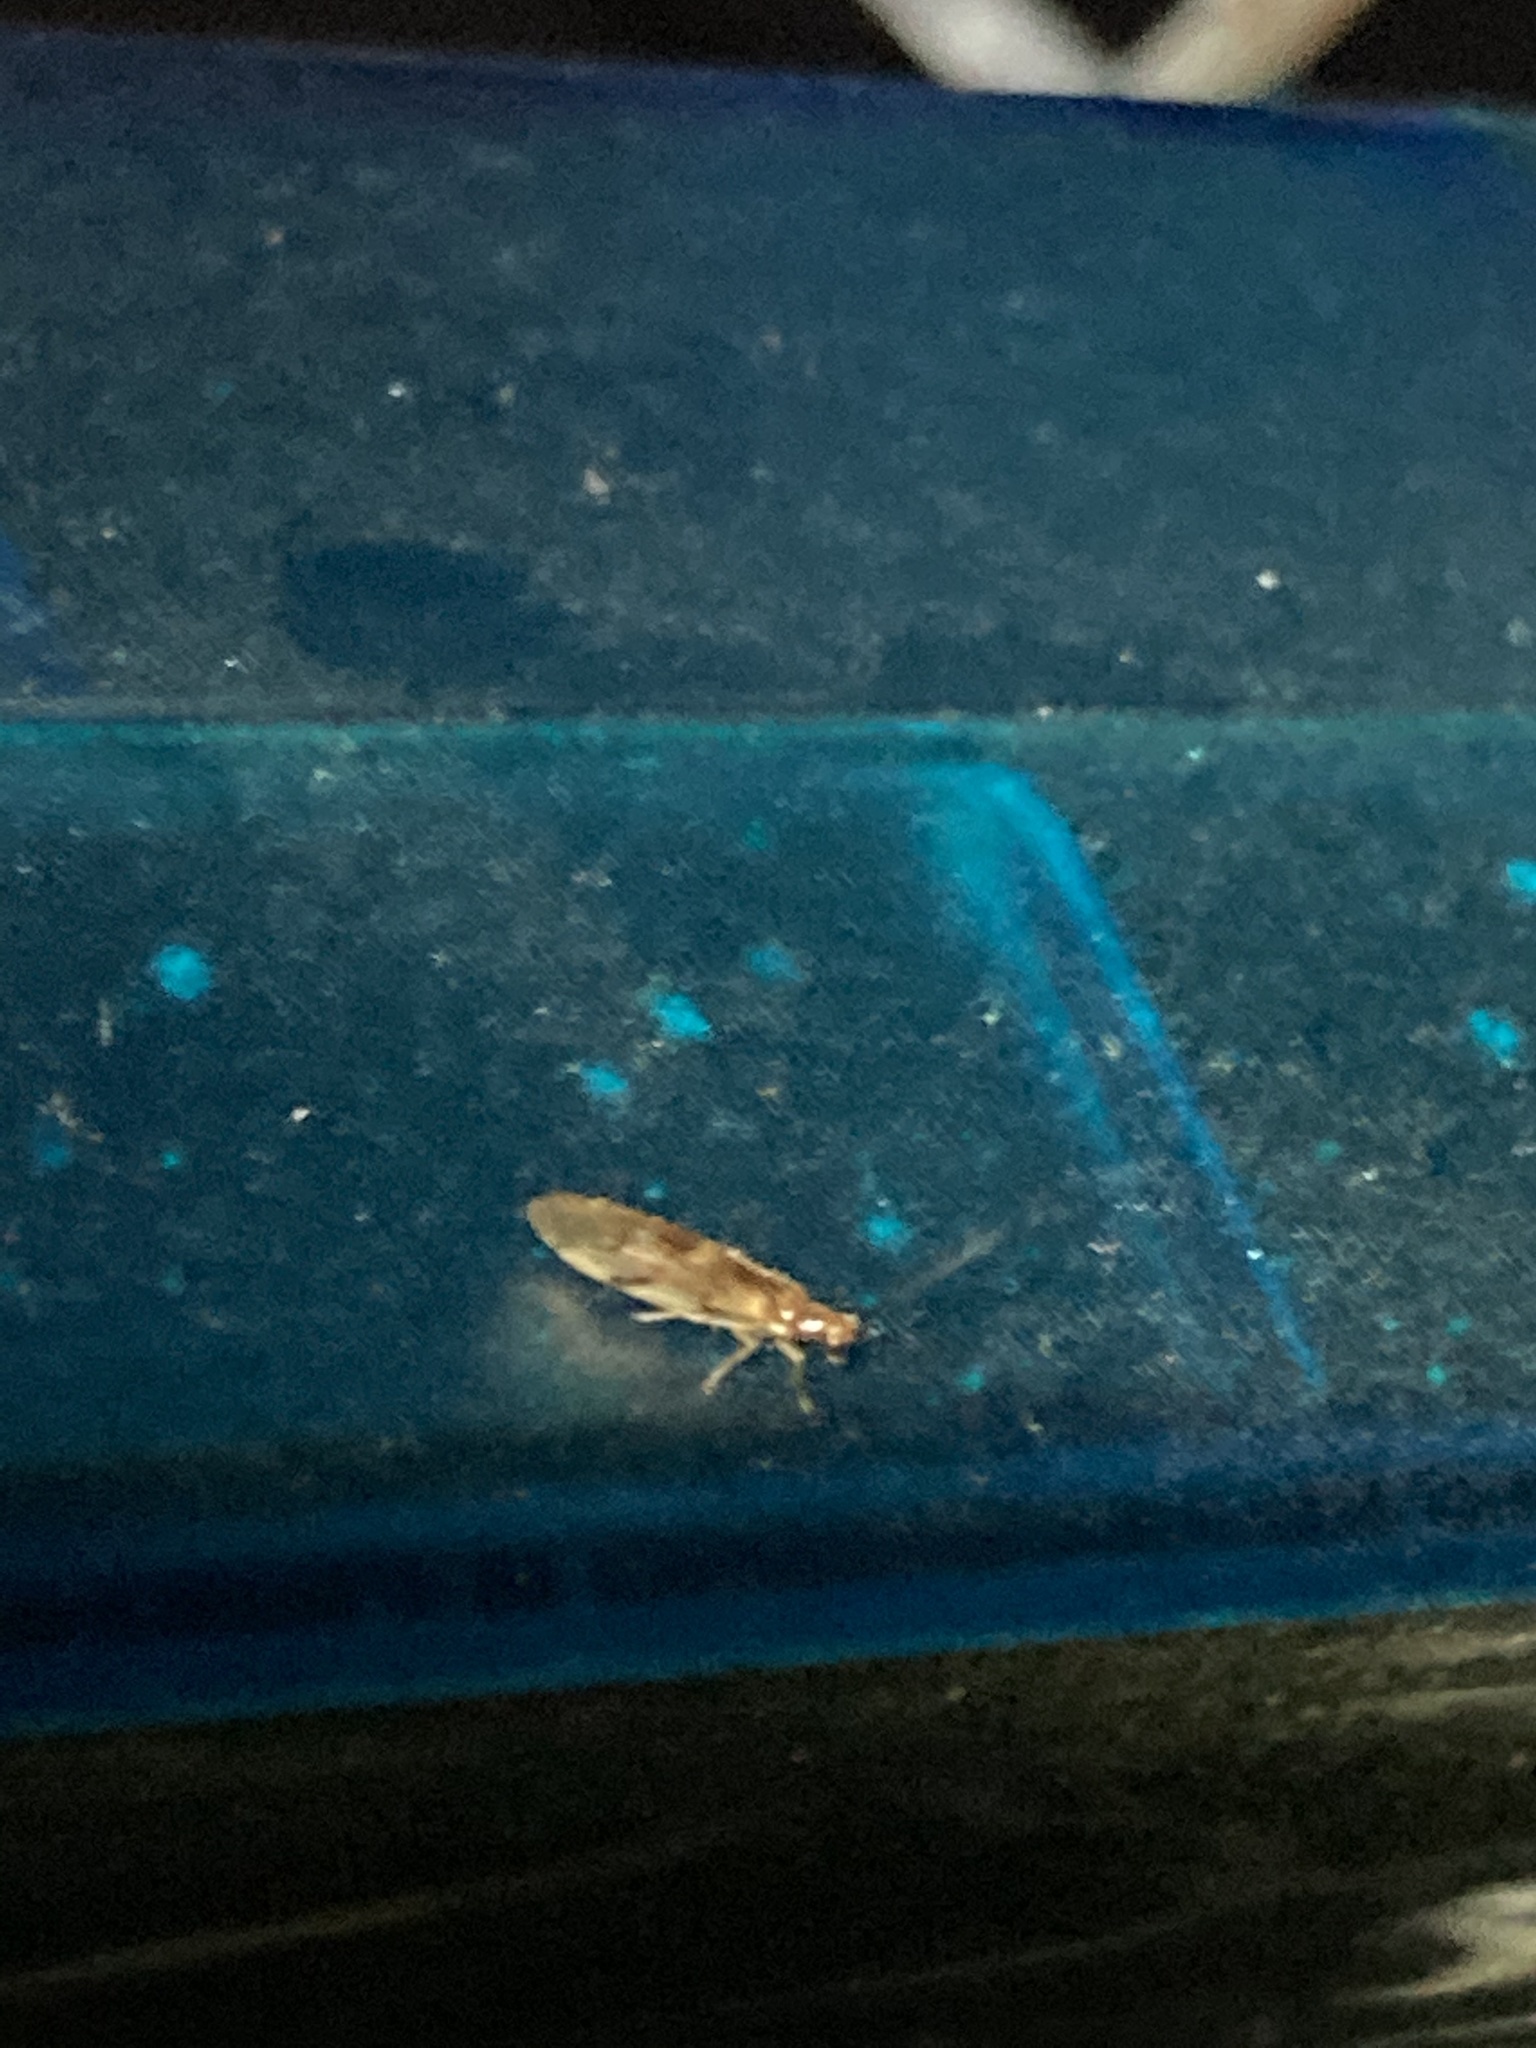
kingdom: Animalia
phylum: Arthropoda
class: Insecta
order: Neuroptera
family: Sisyridae
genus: Climacia
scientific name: Climacia areolaris
